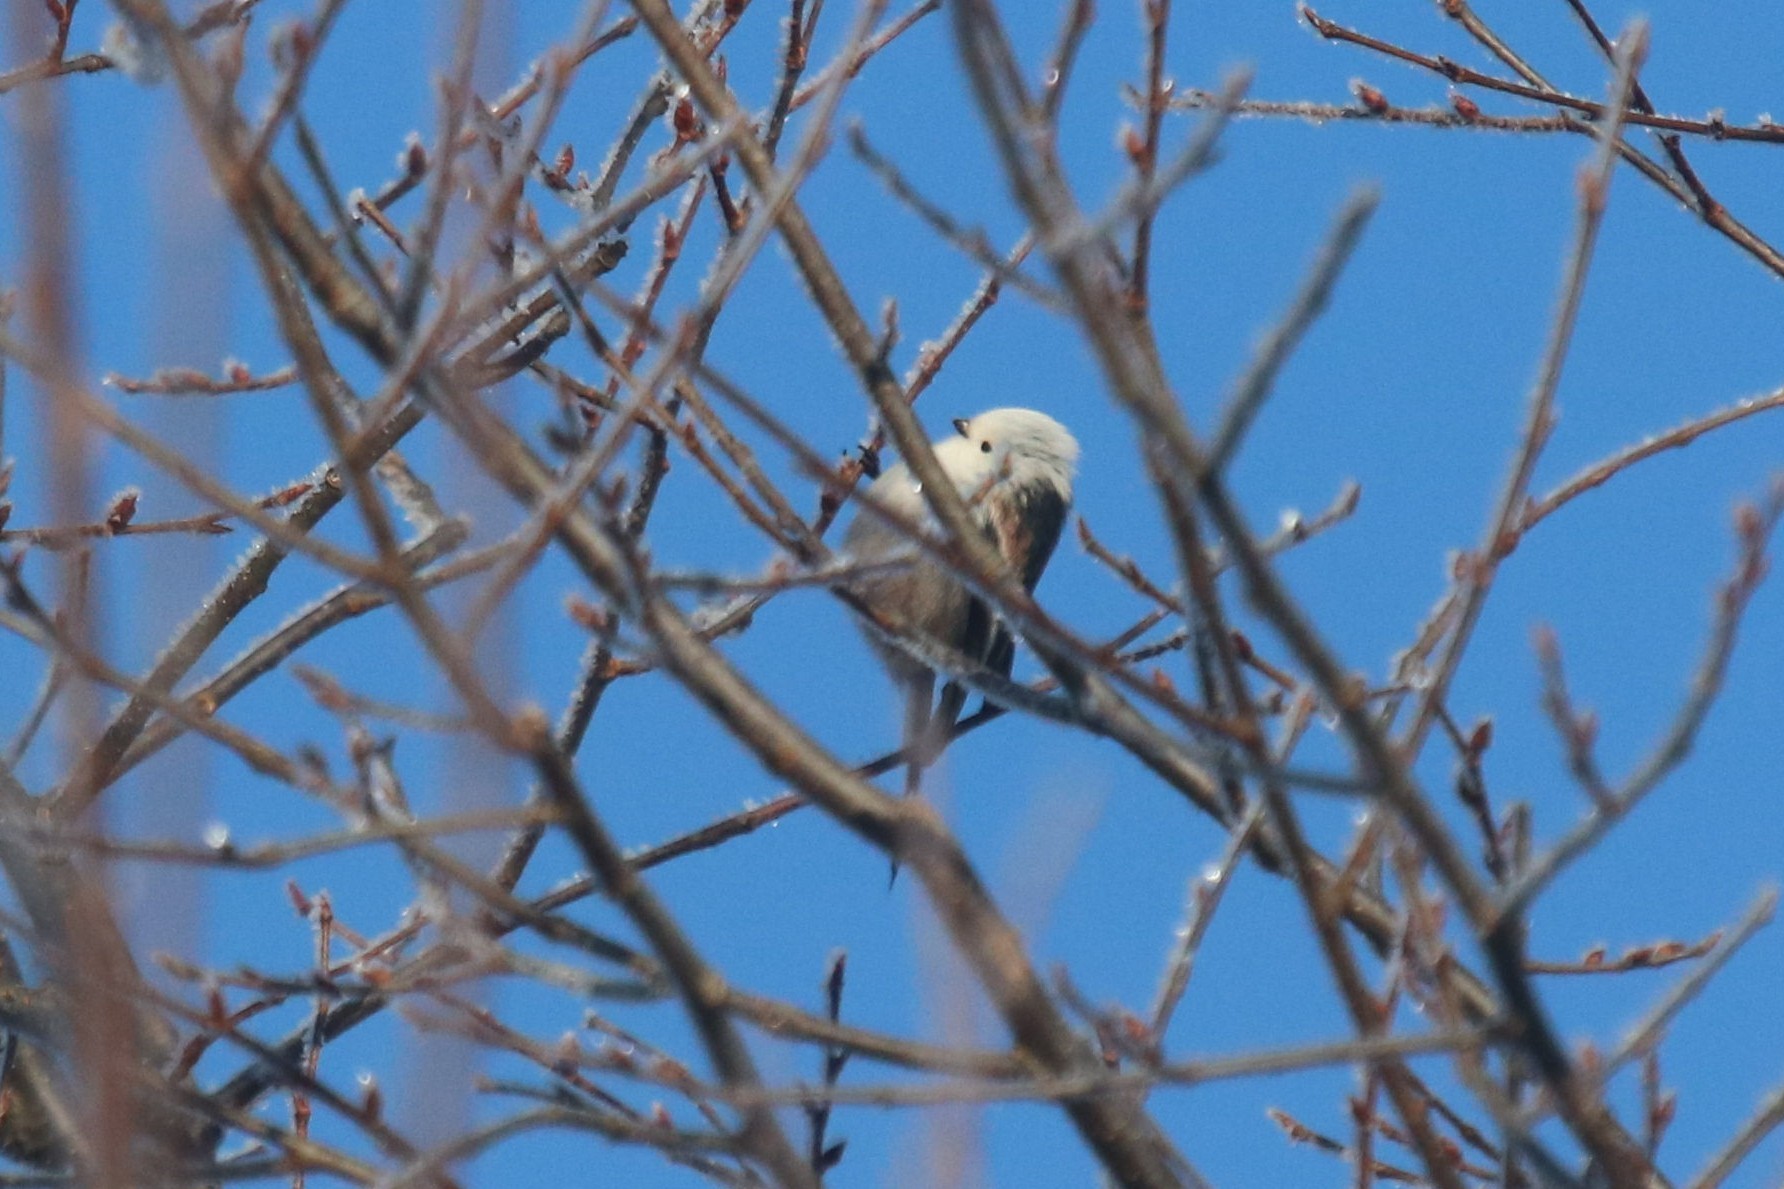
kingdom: Animalia
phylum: Chordata
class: Aves
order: Passeriformes
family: Aegithalidae
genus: Aegithalos
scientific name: Aegithalos caudatus
